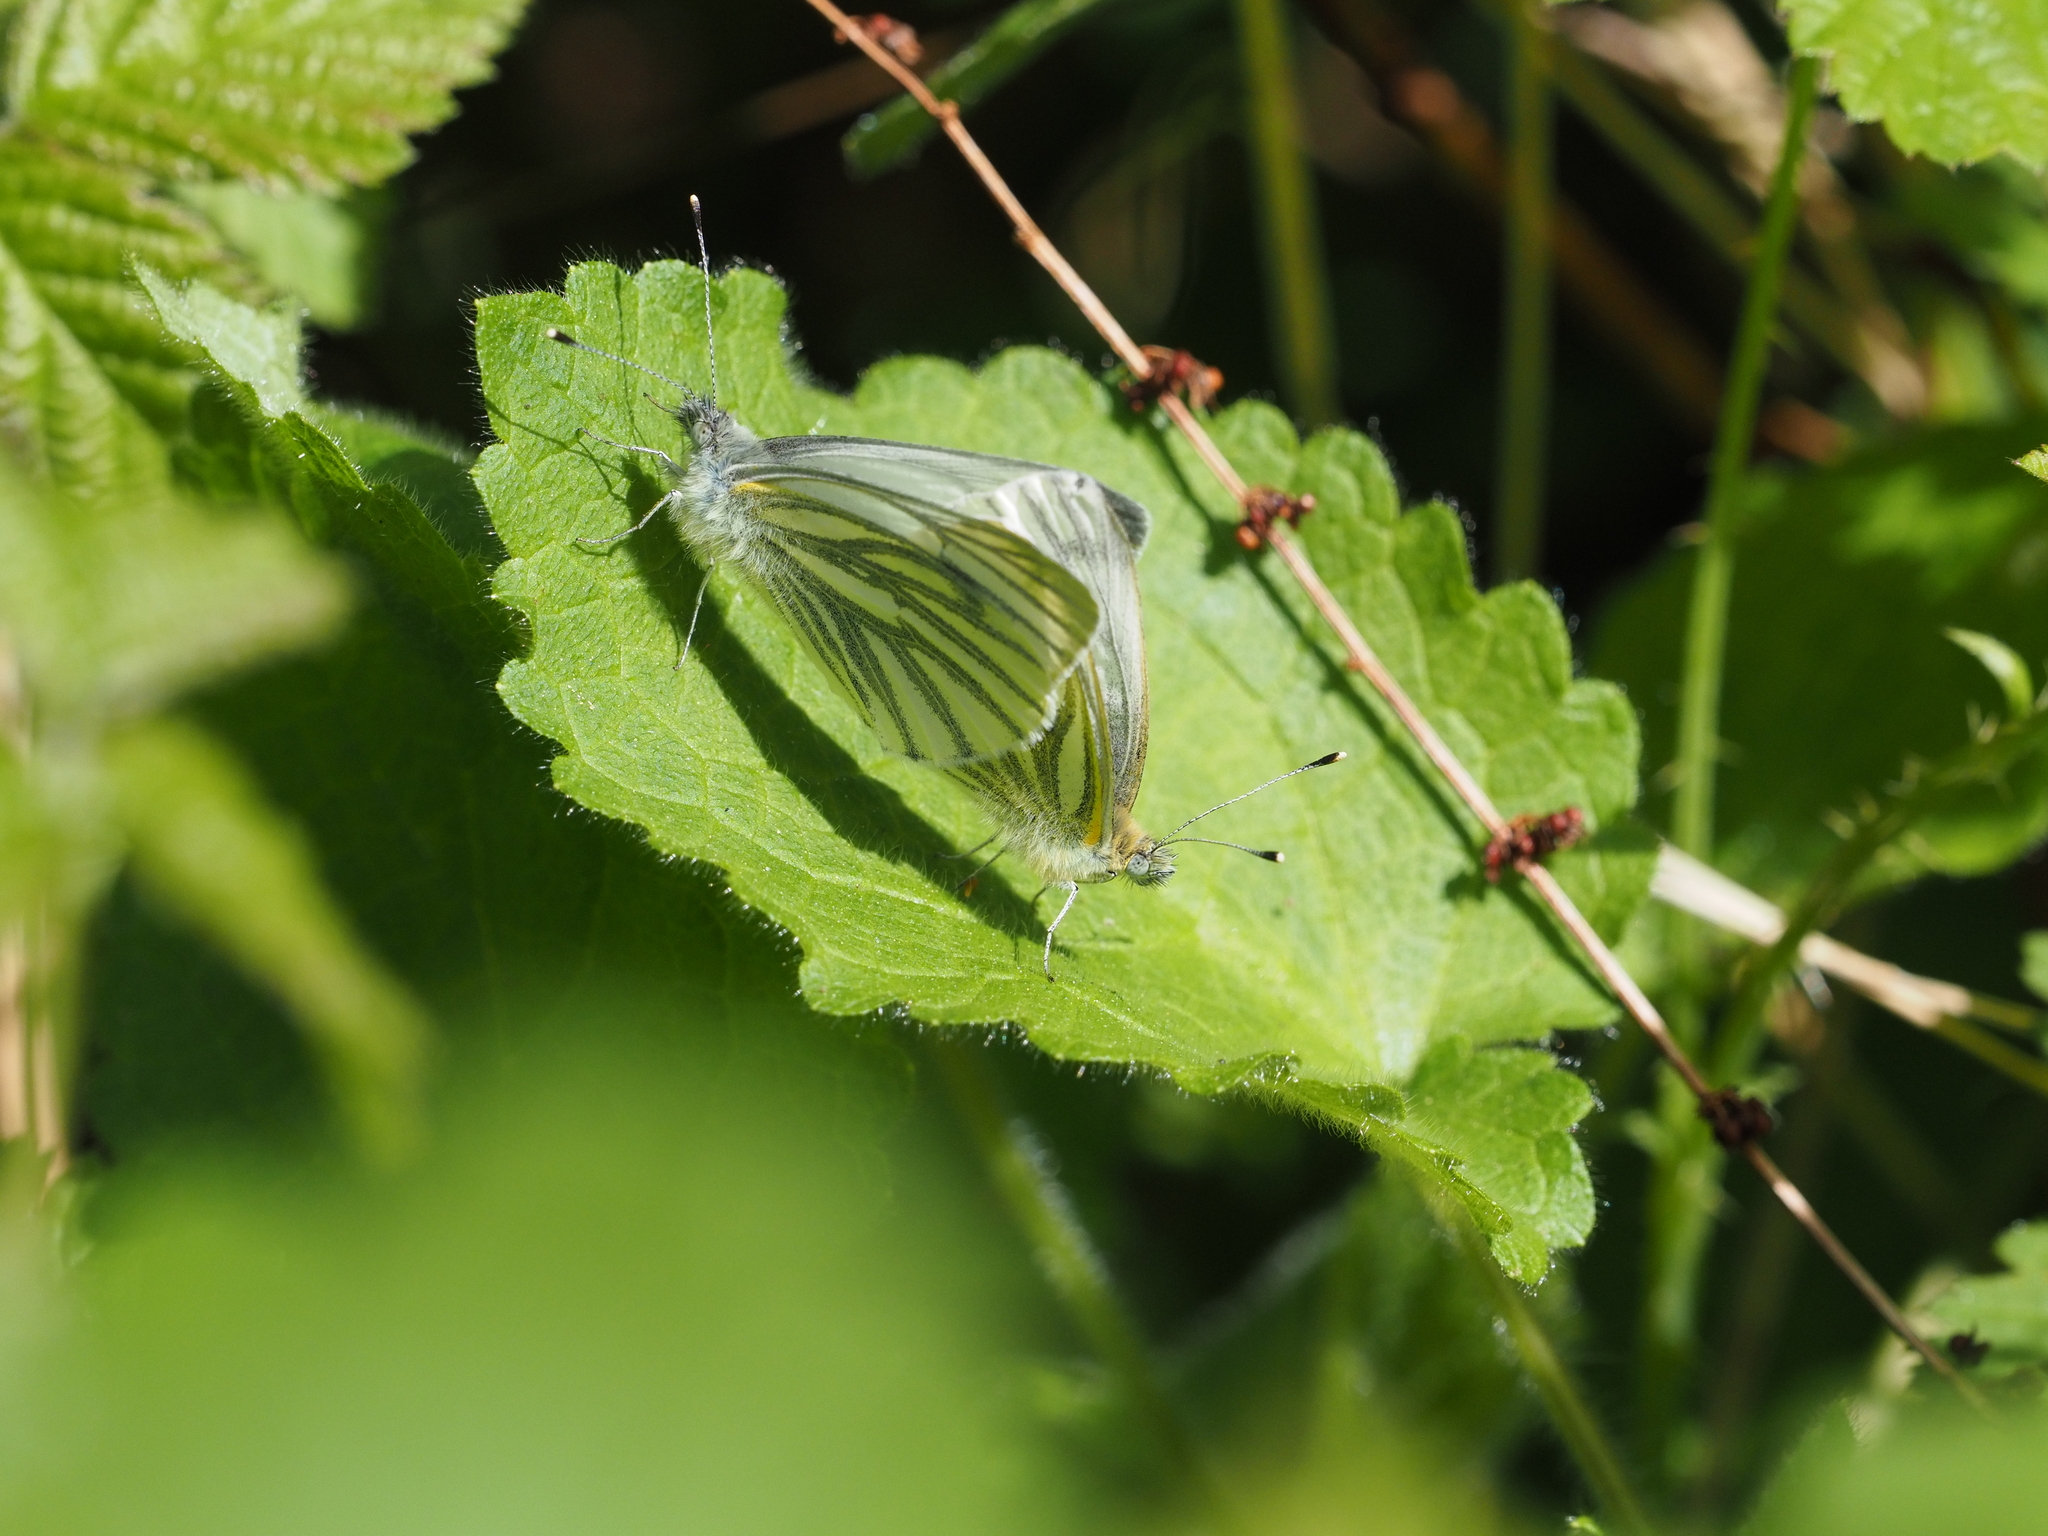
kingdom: Animalia
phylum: Arthropoda
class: Insecta
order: Lepidoptera
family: Pieridae
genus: Pieris
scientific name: Pieris napi
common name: Green-veined white
